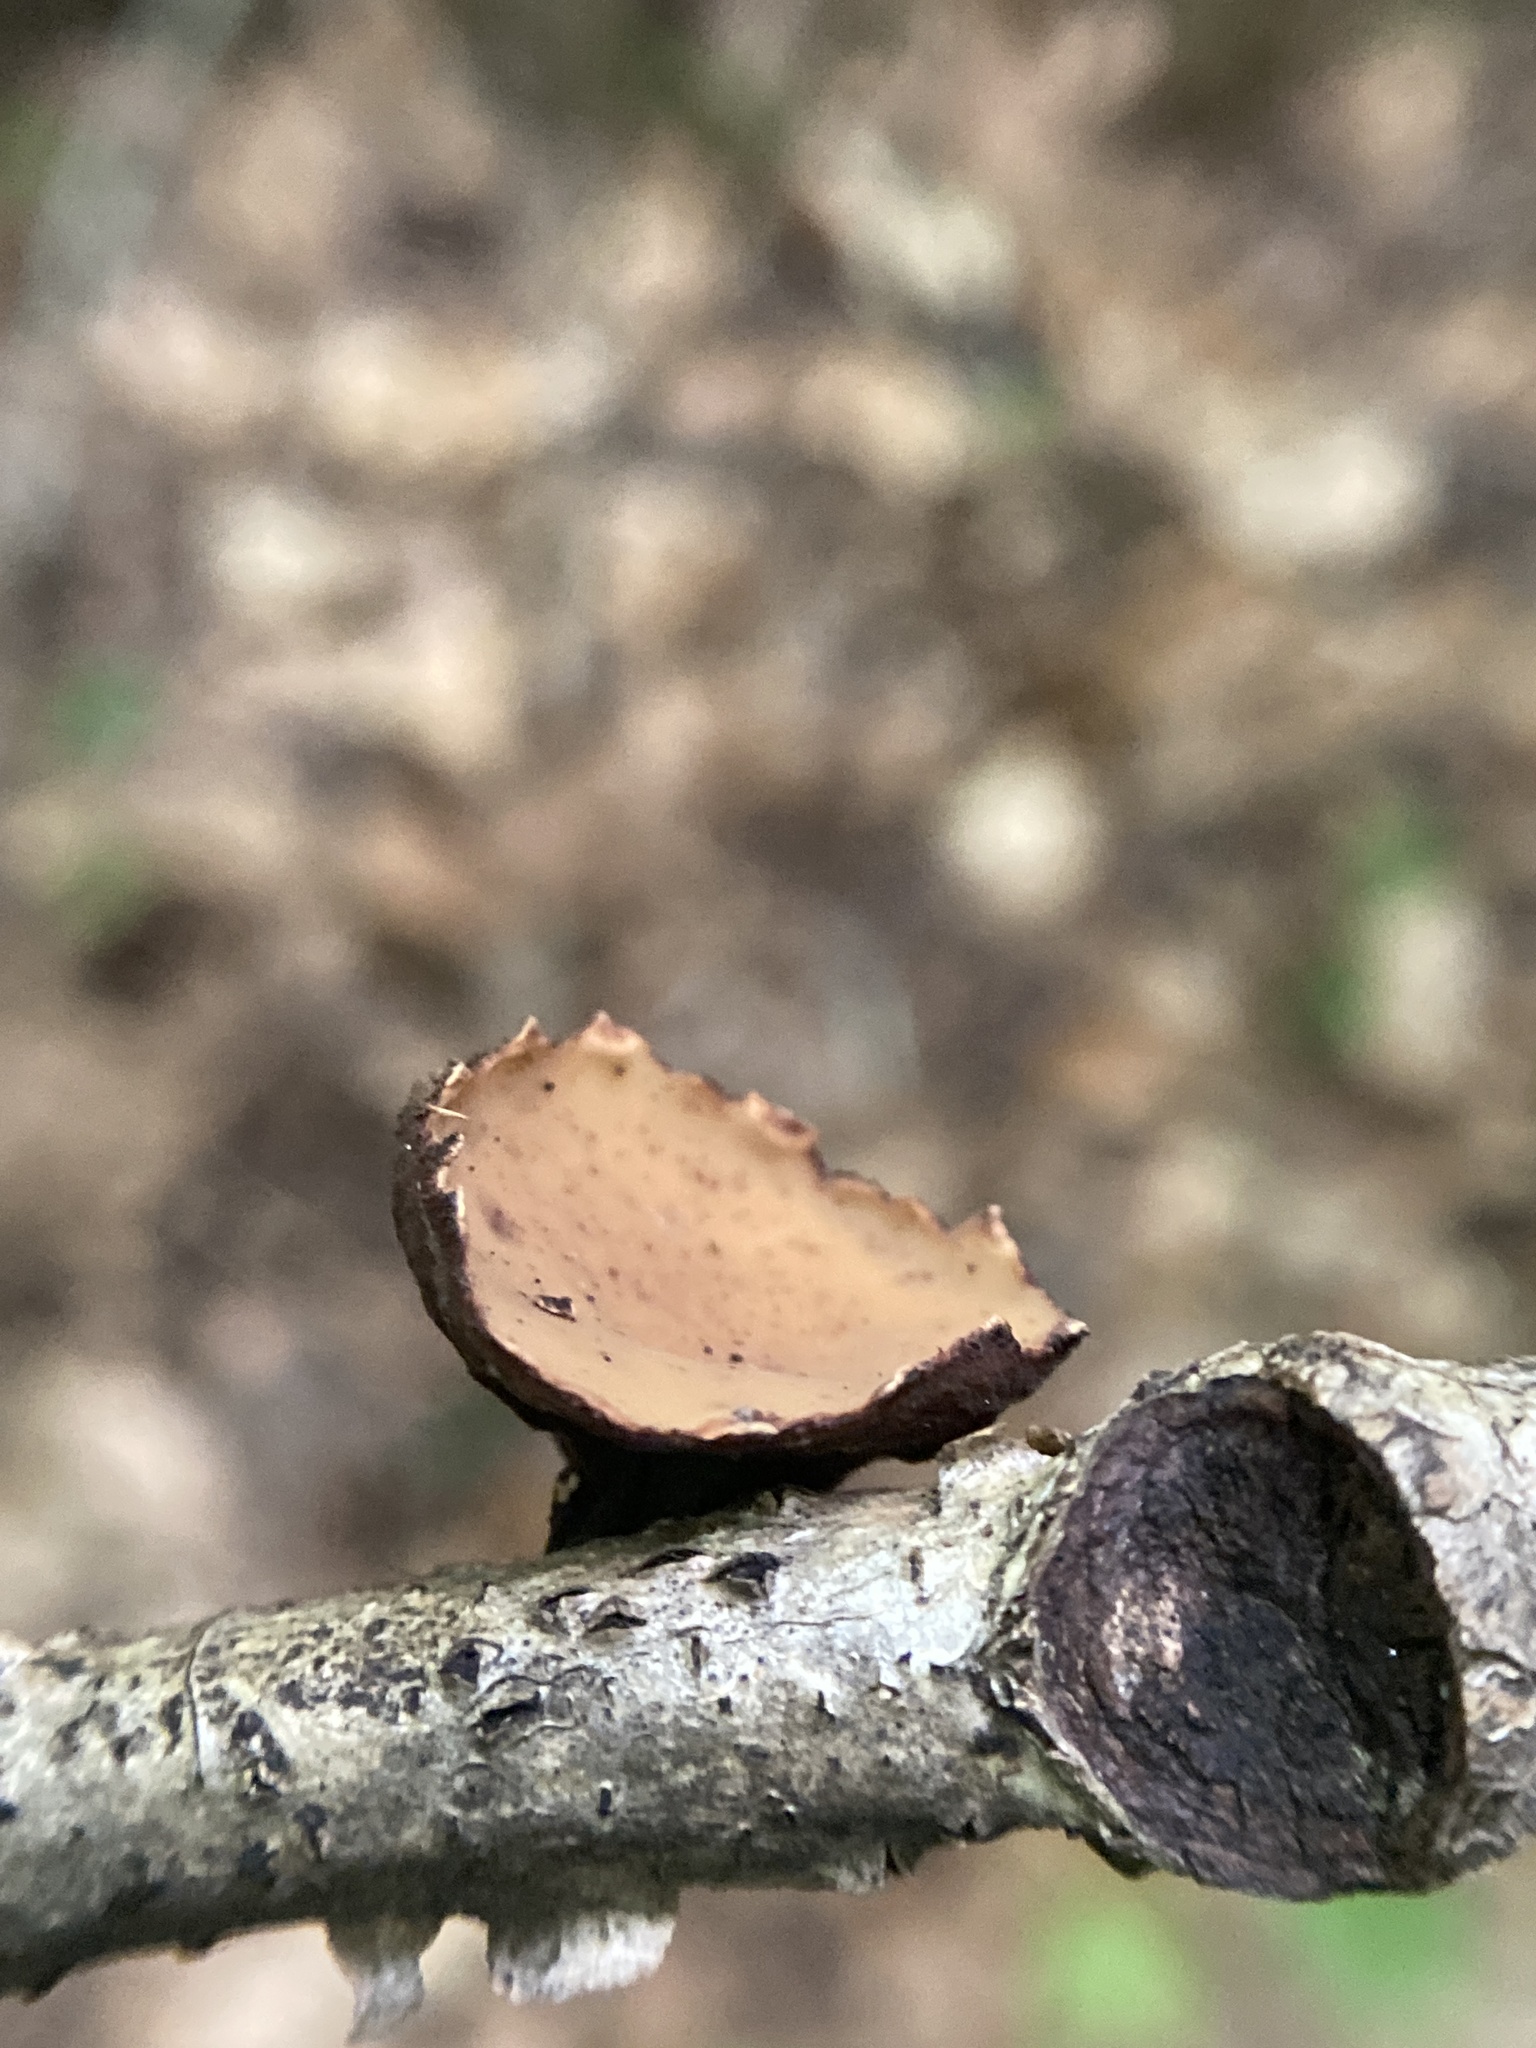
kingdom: Fungi
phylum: Ascomycota
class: Pezizomycetes
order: Pezizales
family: Sarcosomataceae
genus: Galiella
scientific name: Galiella rufa
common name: Hairy rubber cup
